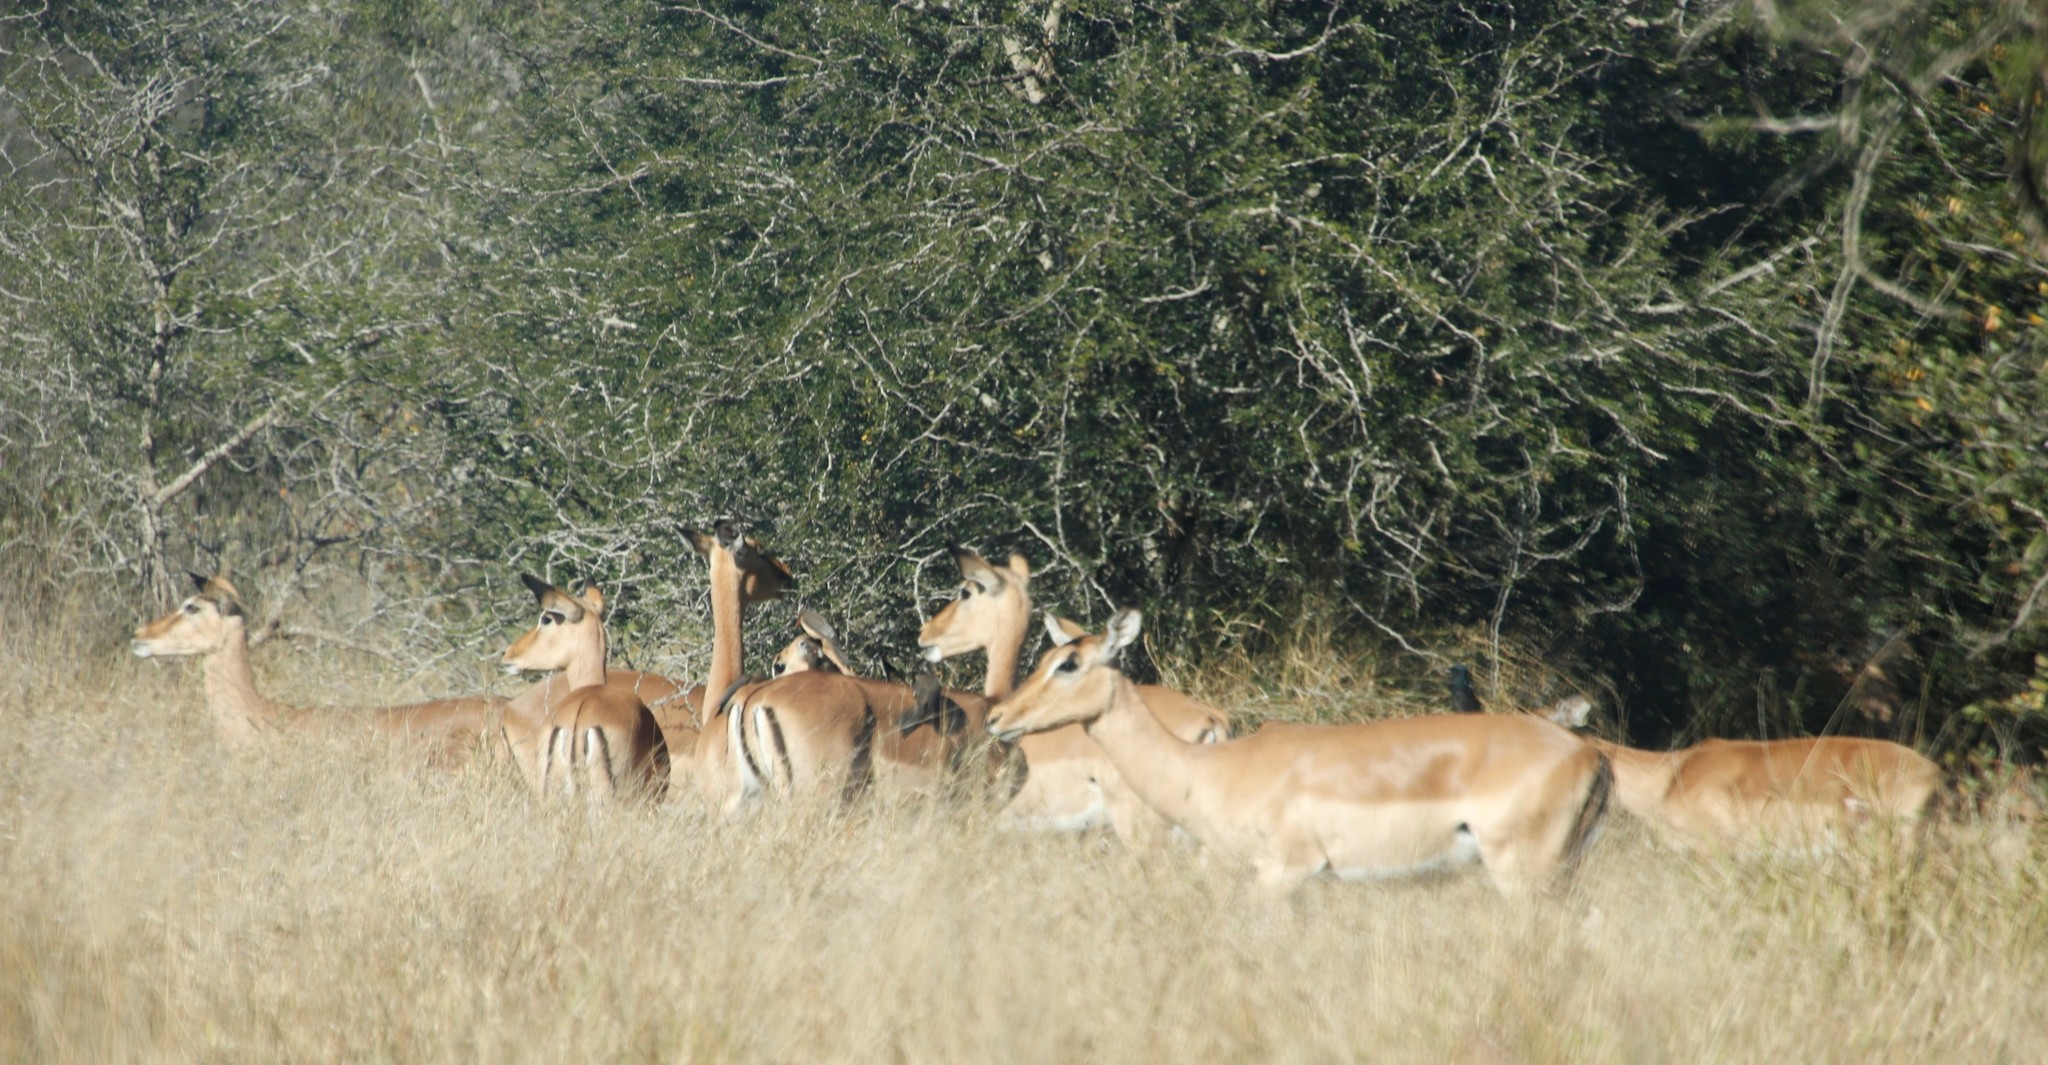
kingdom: Animalia
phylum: Chordata
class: Mammalia
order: Artiodactyla
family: Bovidae
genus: Aepyceros
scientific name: Aepyceros melampus
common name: Impala
